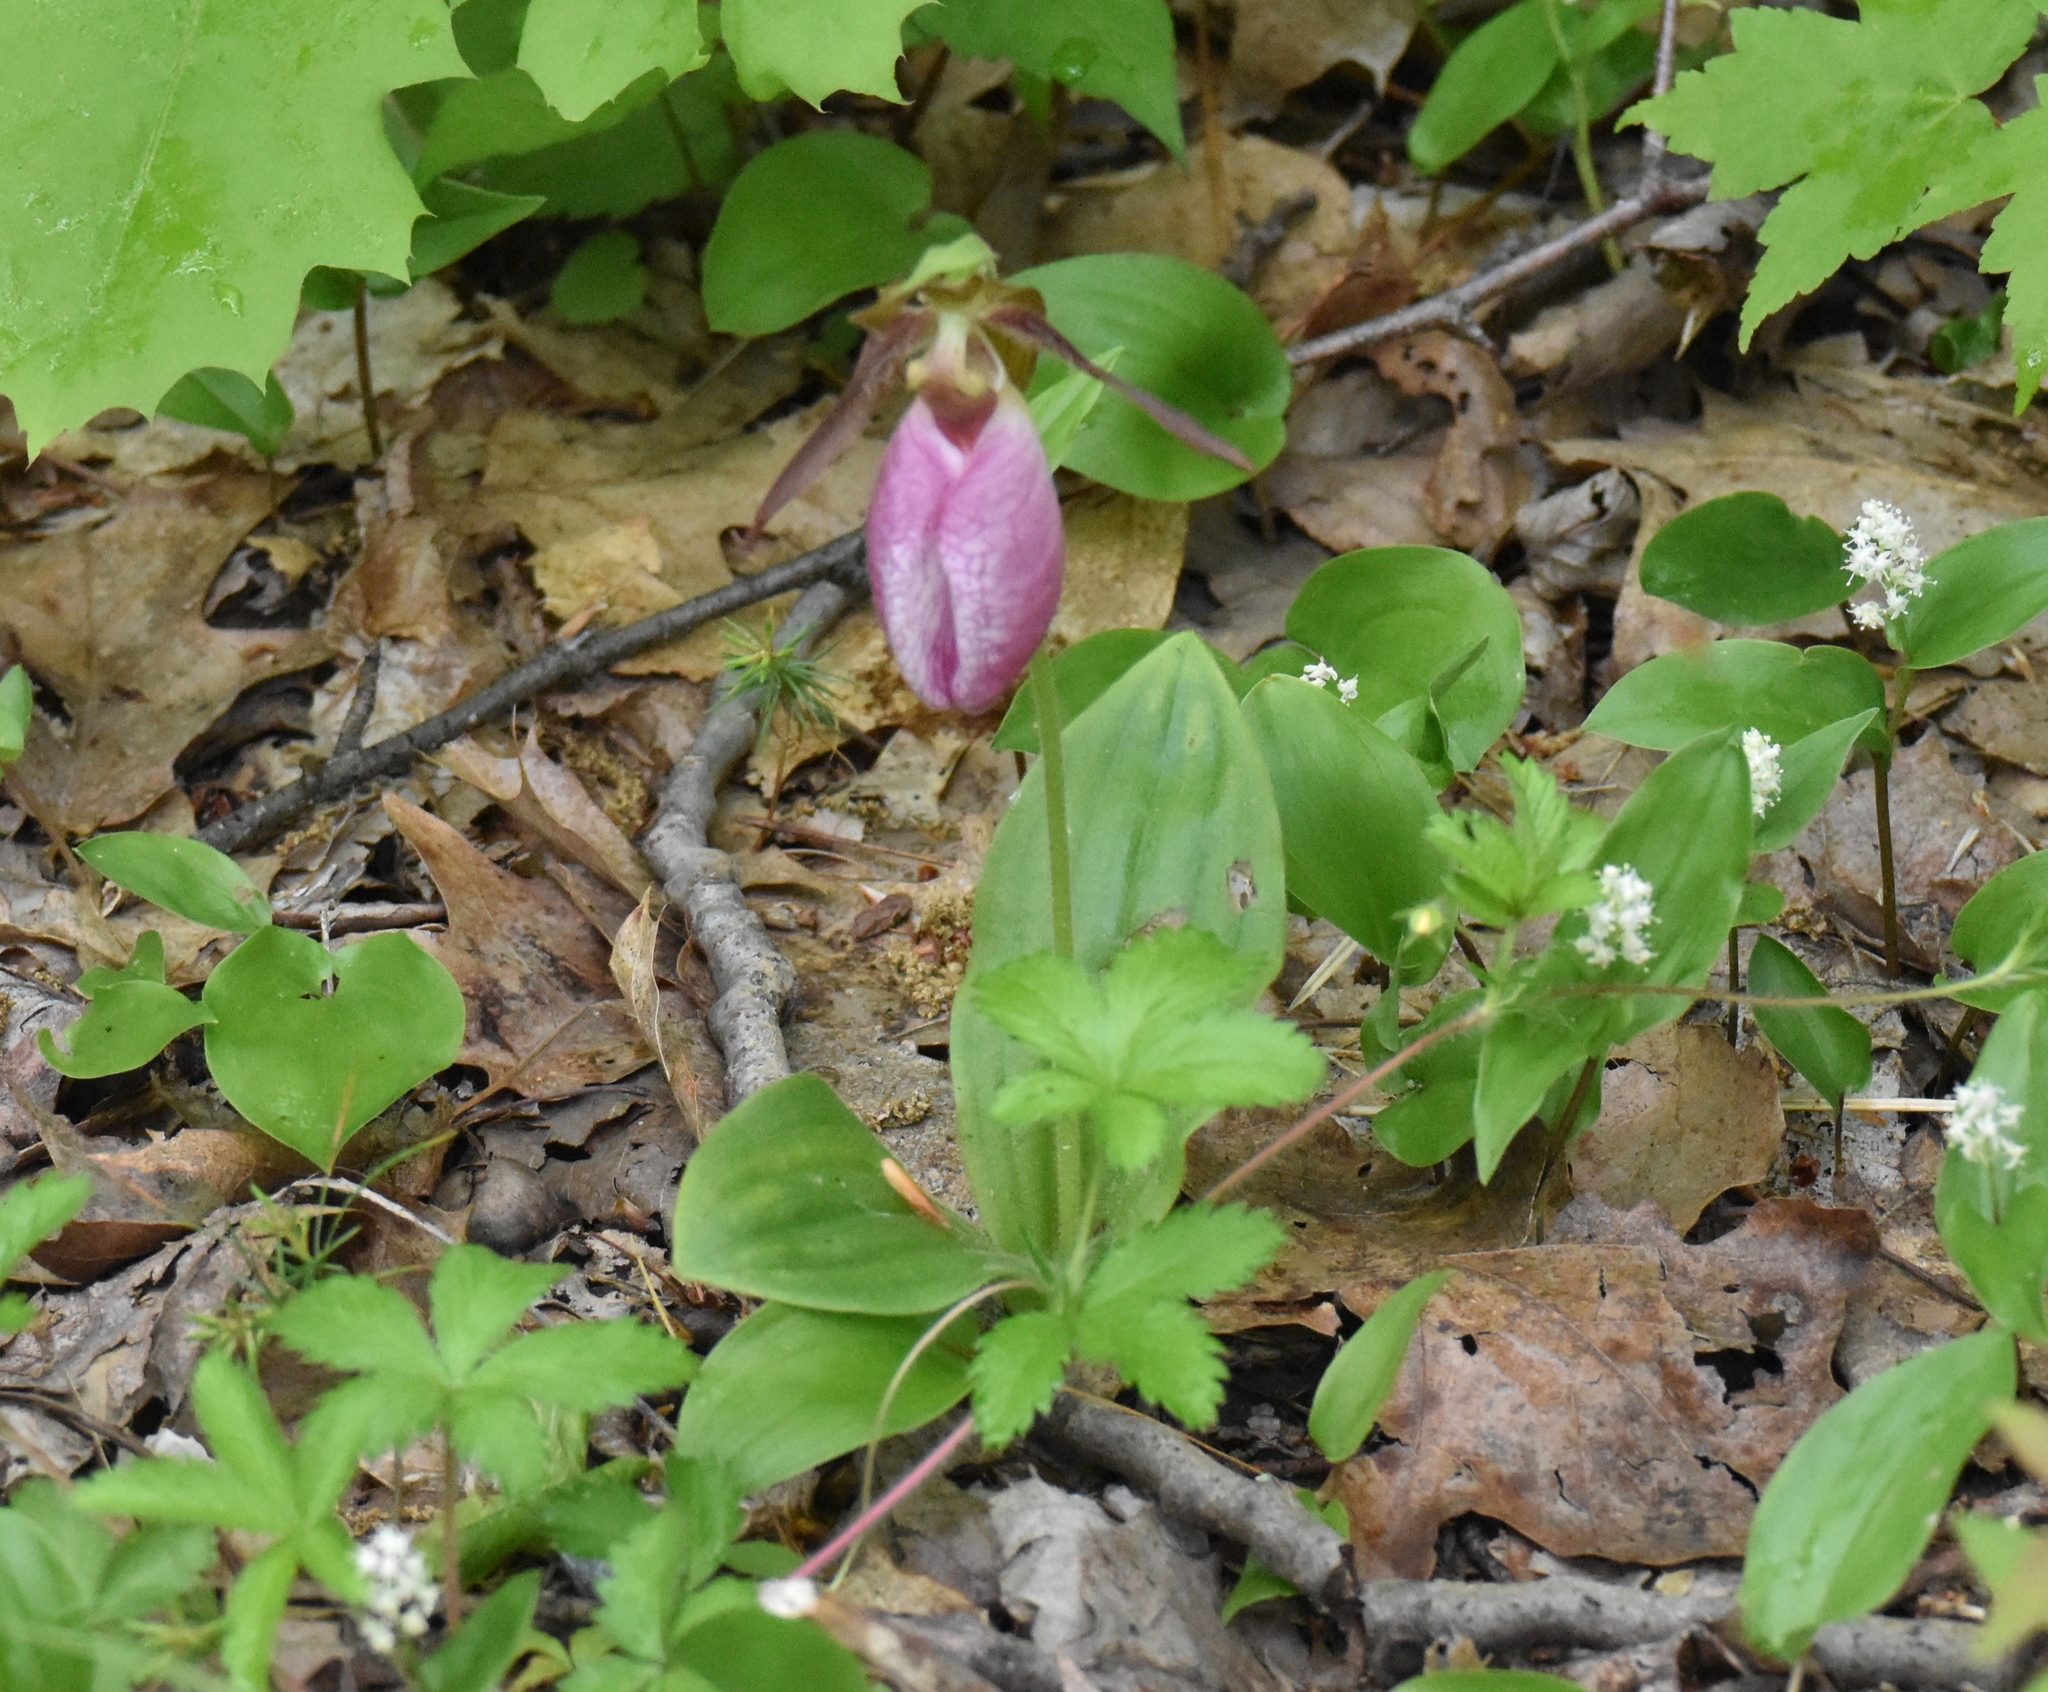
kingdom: Plantae
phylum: Tracheophyta
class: Liliopsida
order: Asparagales
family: Orchidaceae
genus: Cypripedium
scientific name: Cypripedium acaule
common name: Pink lady's-slipper
